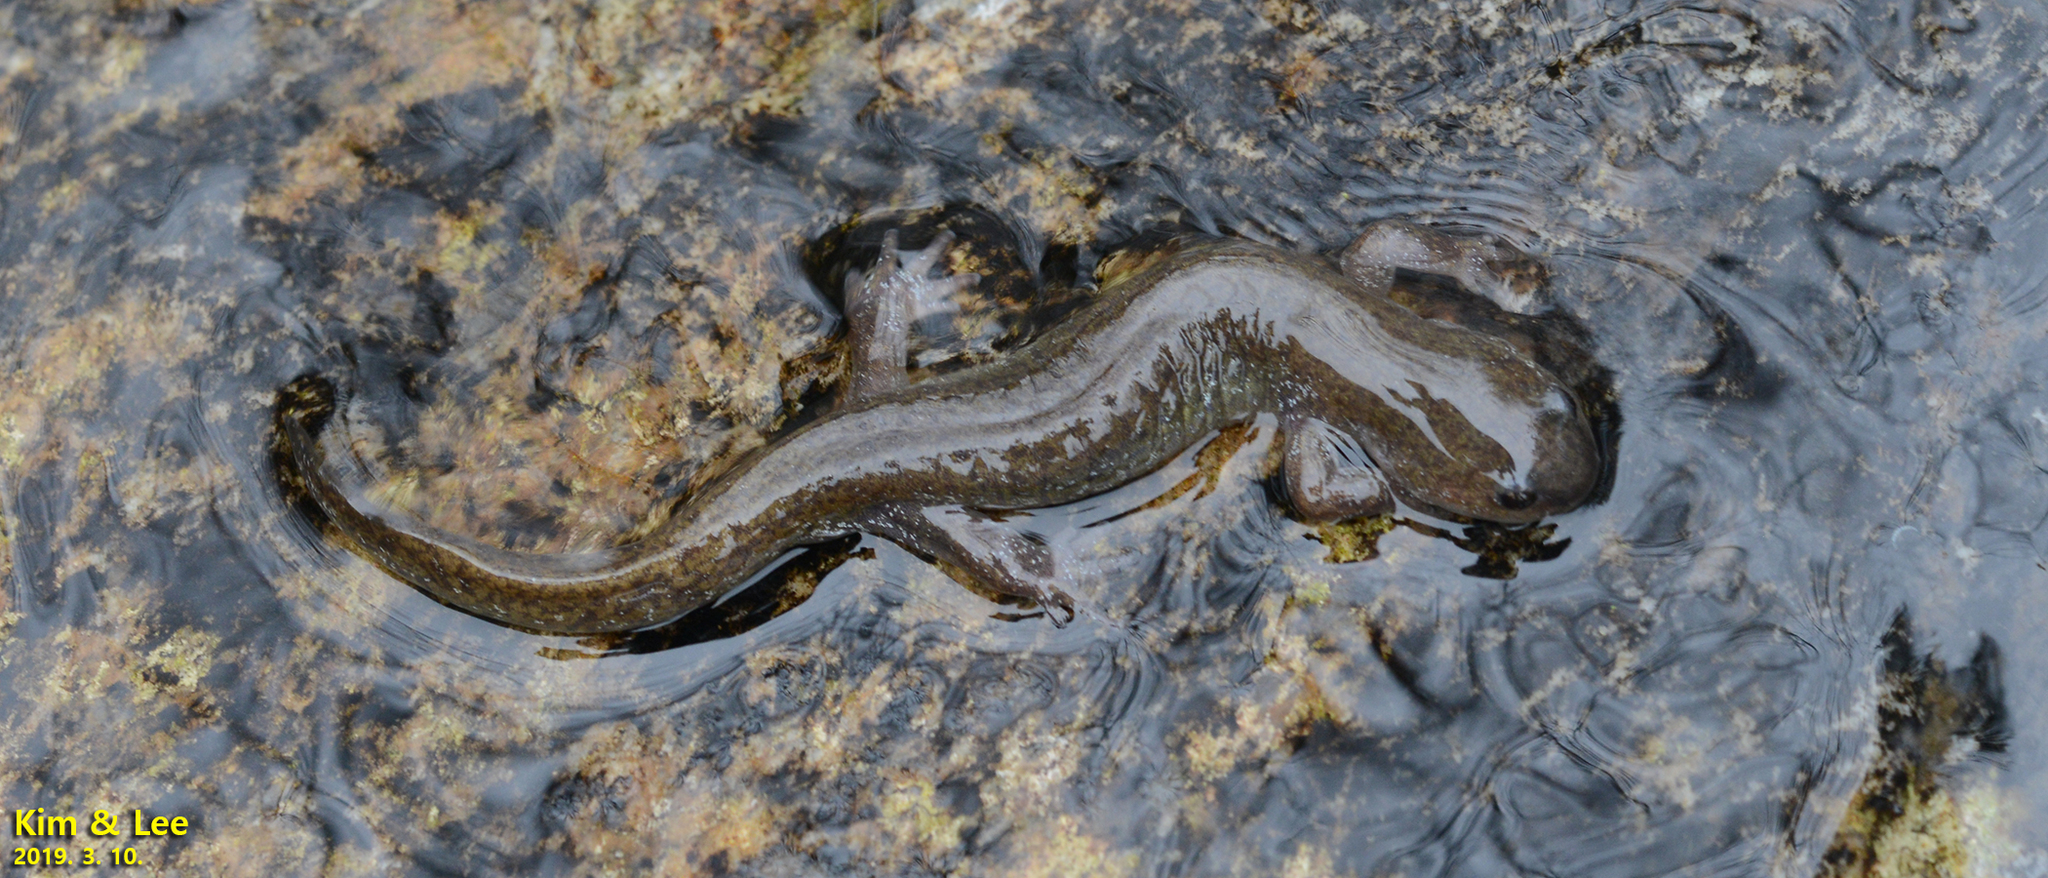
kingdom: Animalia
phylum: Chordata
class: Amphibia
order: Caudata
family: Hynobiidae
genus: Hynobius
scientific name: Hynobius unisacculus
